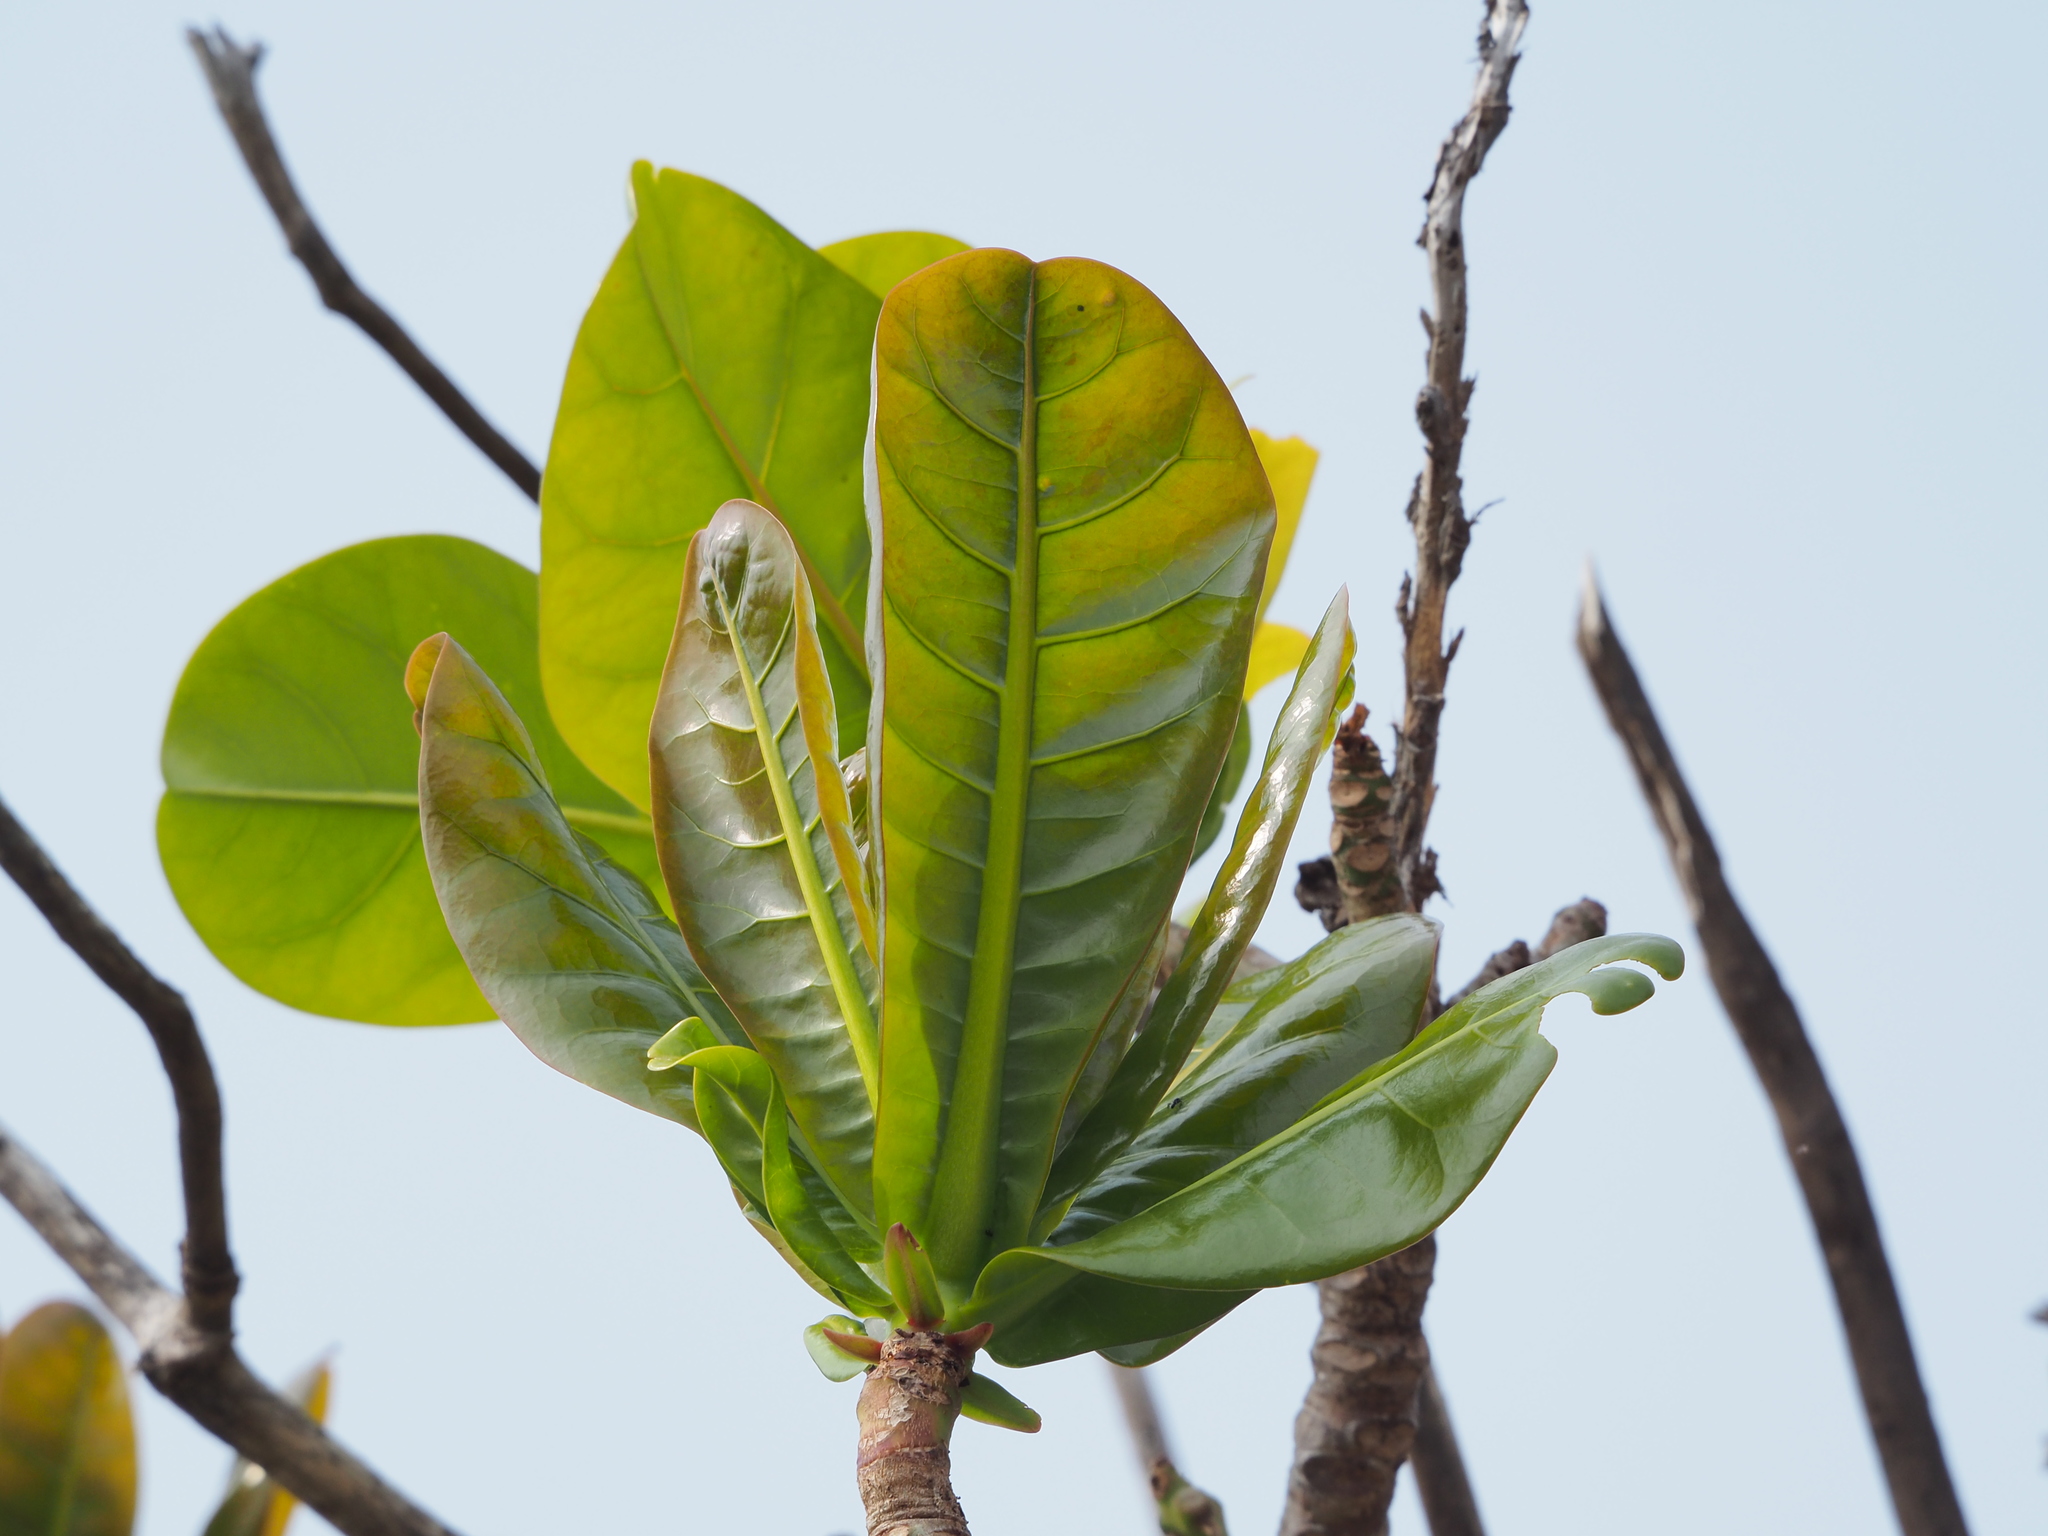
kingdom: Plantae
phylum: Tracheophyta
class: Magnoliopsida
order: Ericales
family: Lecythidaceae
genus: Barringtonia
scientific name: Barringtonia asiatica
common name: Mango-pine
